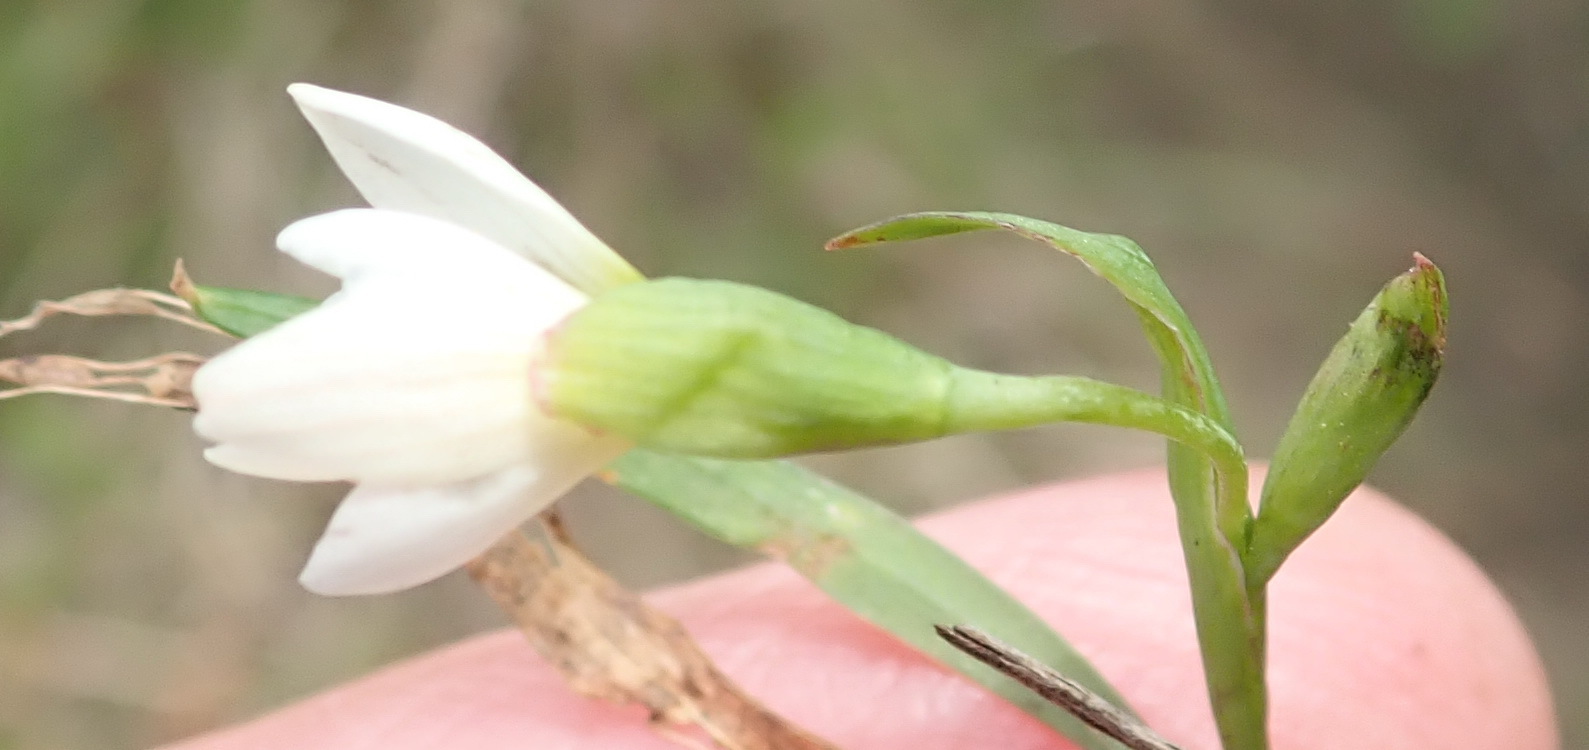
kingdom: Plantae
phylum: Tracheophyta
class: Liliopsida
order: Asparagales
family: Iridaceae
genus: Geissorhiza
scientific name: Geissorhiza inconspicua
